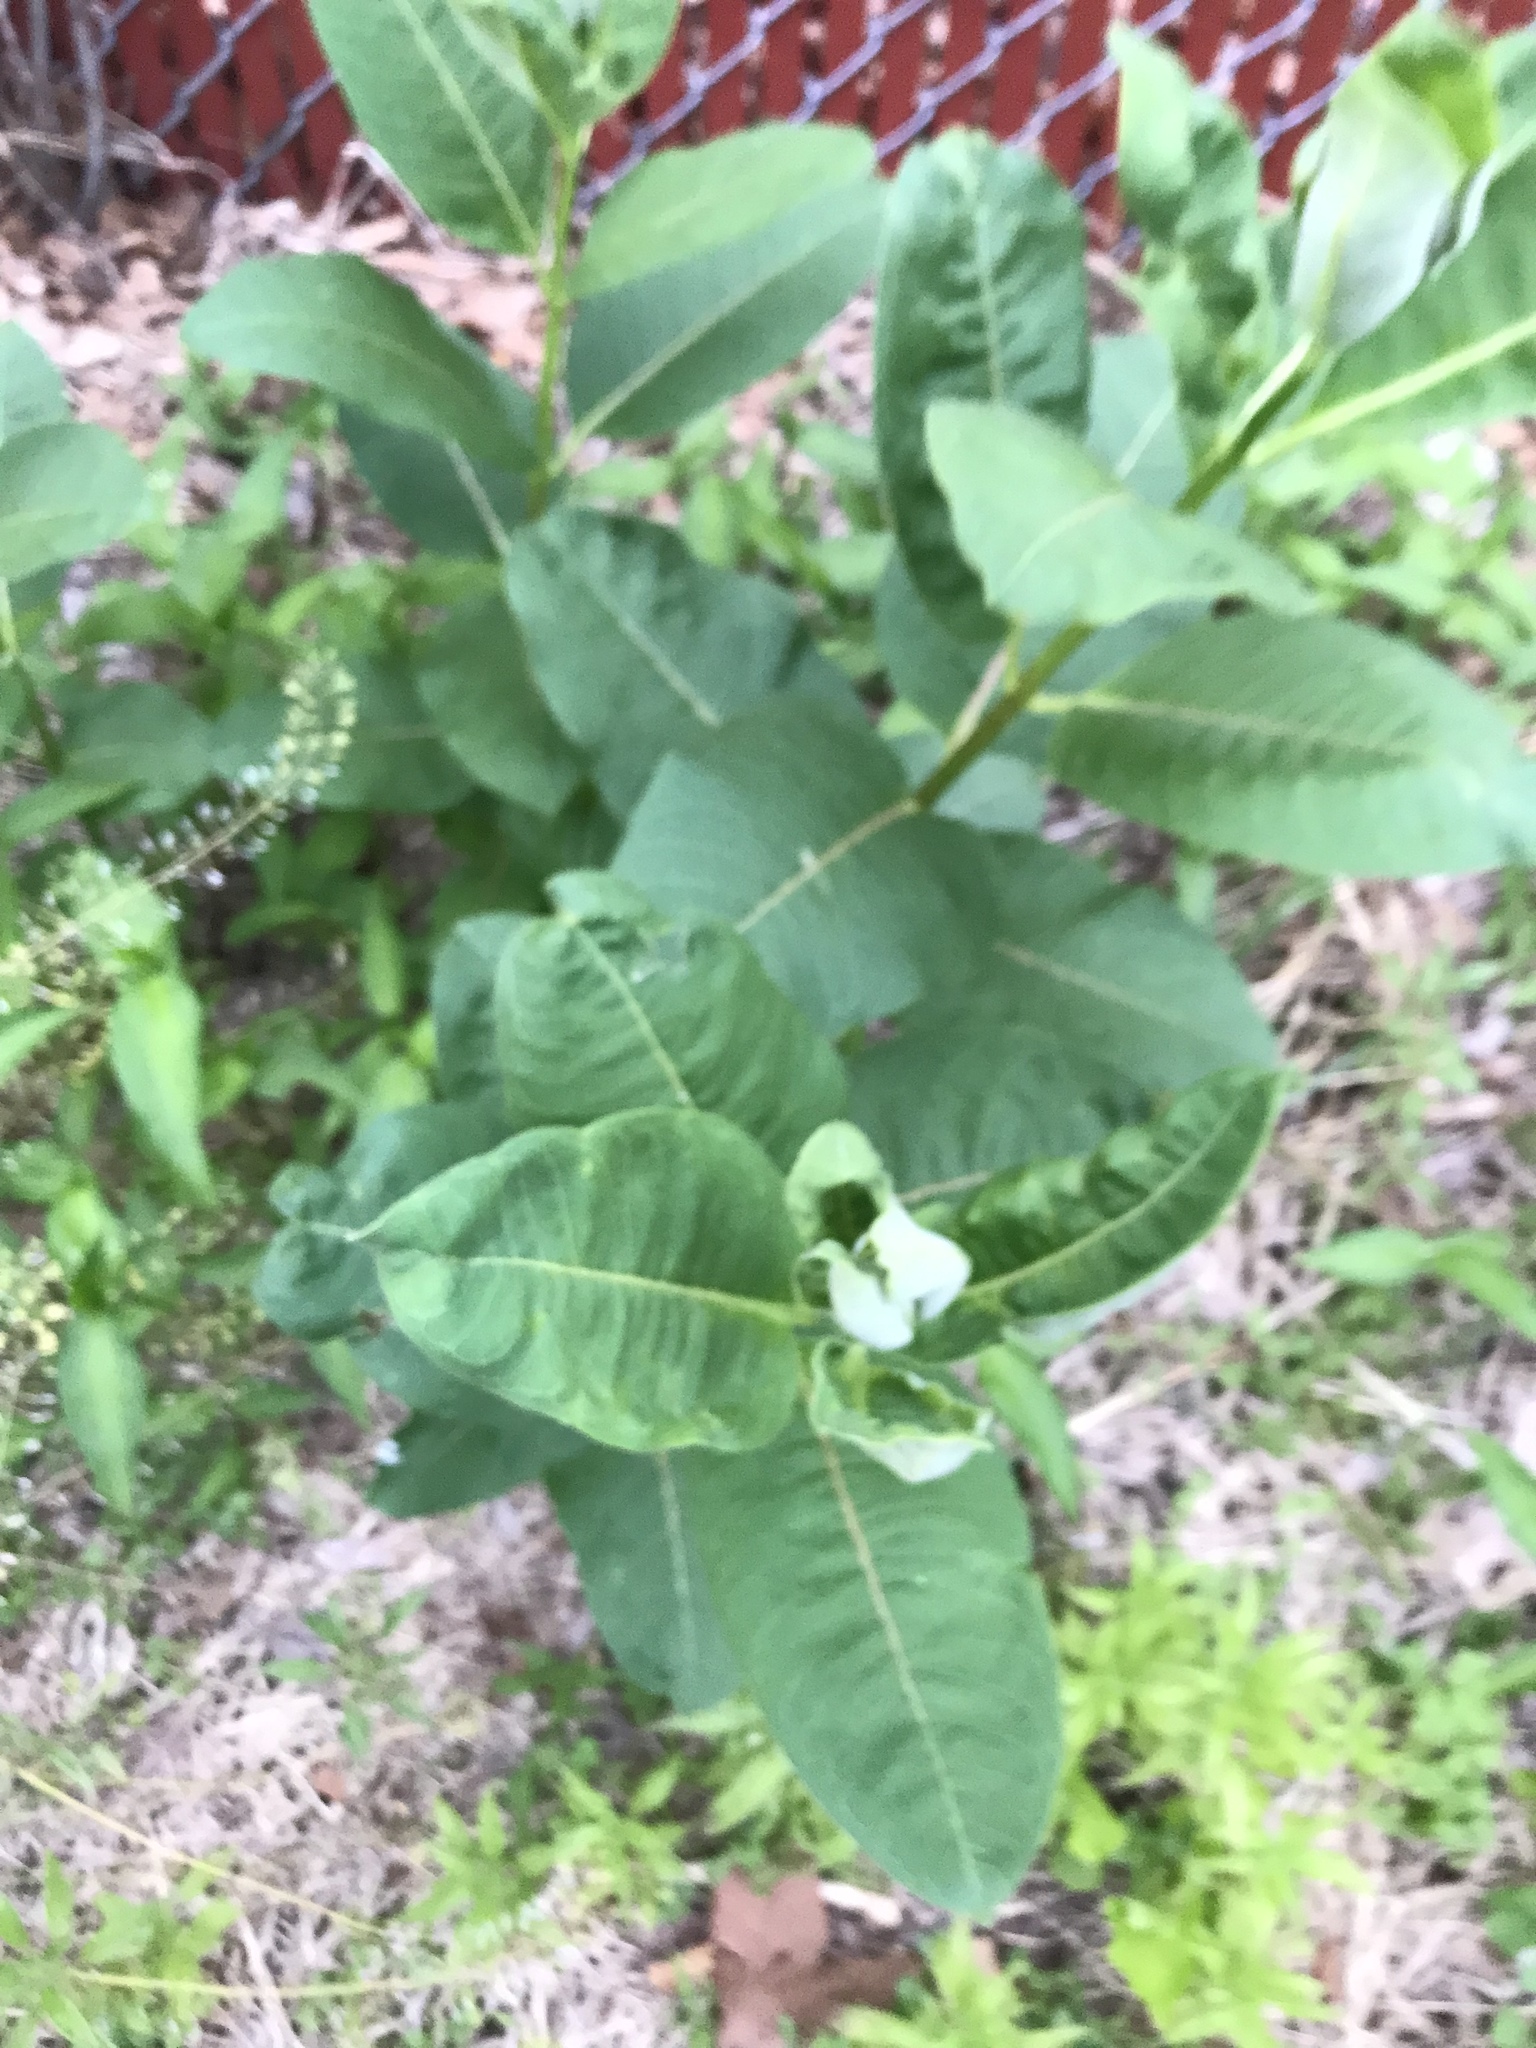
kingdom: Plantae
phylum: Tracheophyta
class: Magnoliopsida
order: Gentianales
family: Apocynaceae
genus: Asclepias
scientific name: Asclepias syriaca
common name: Common milkweed
